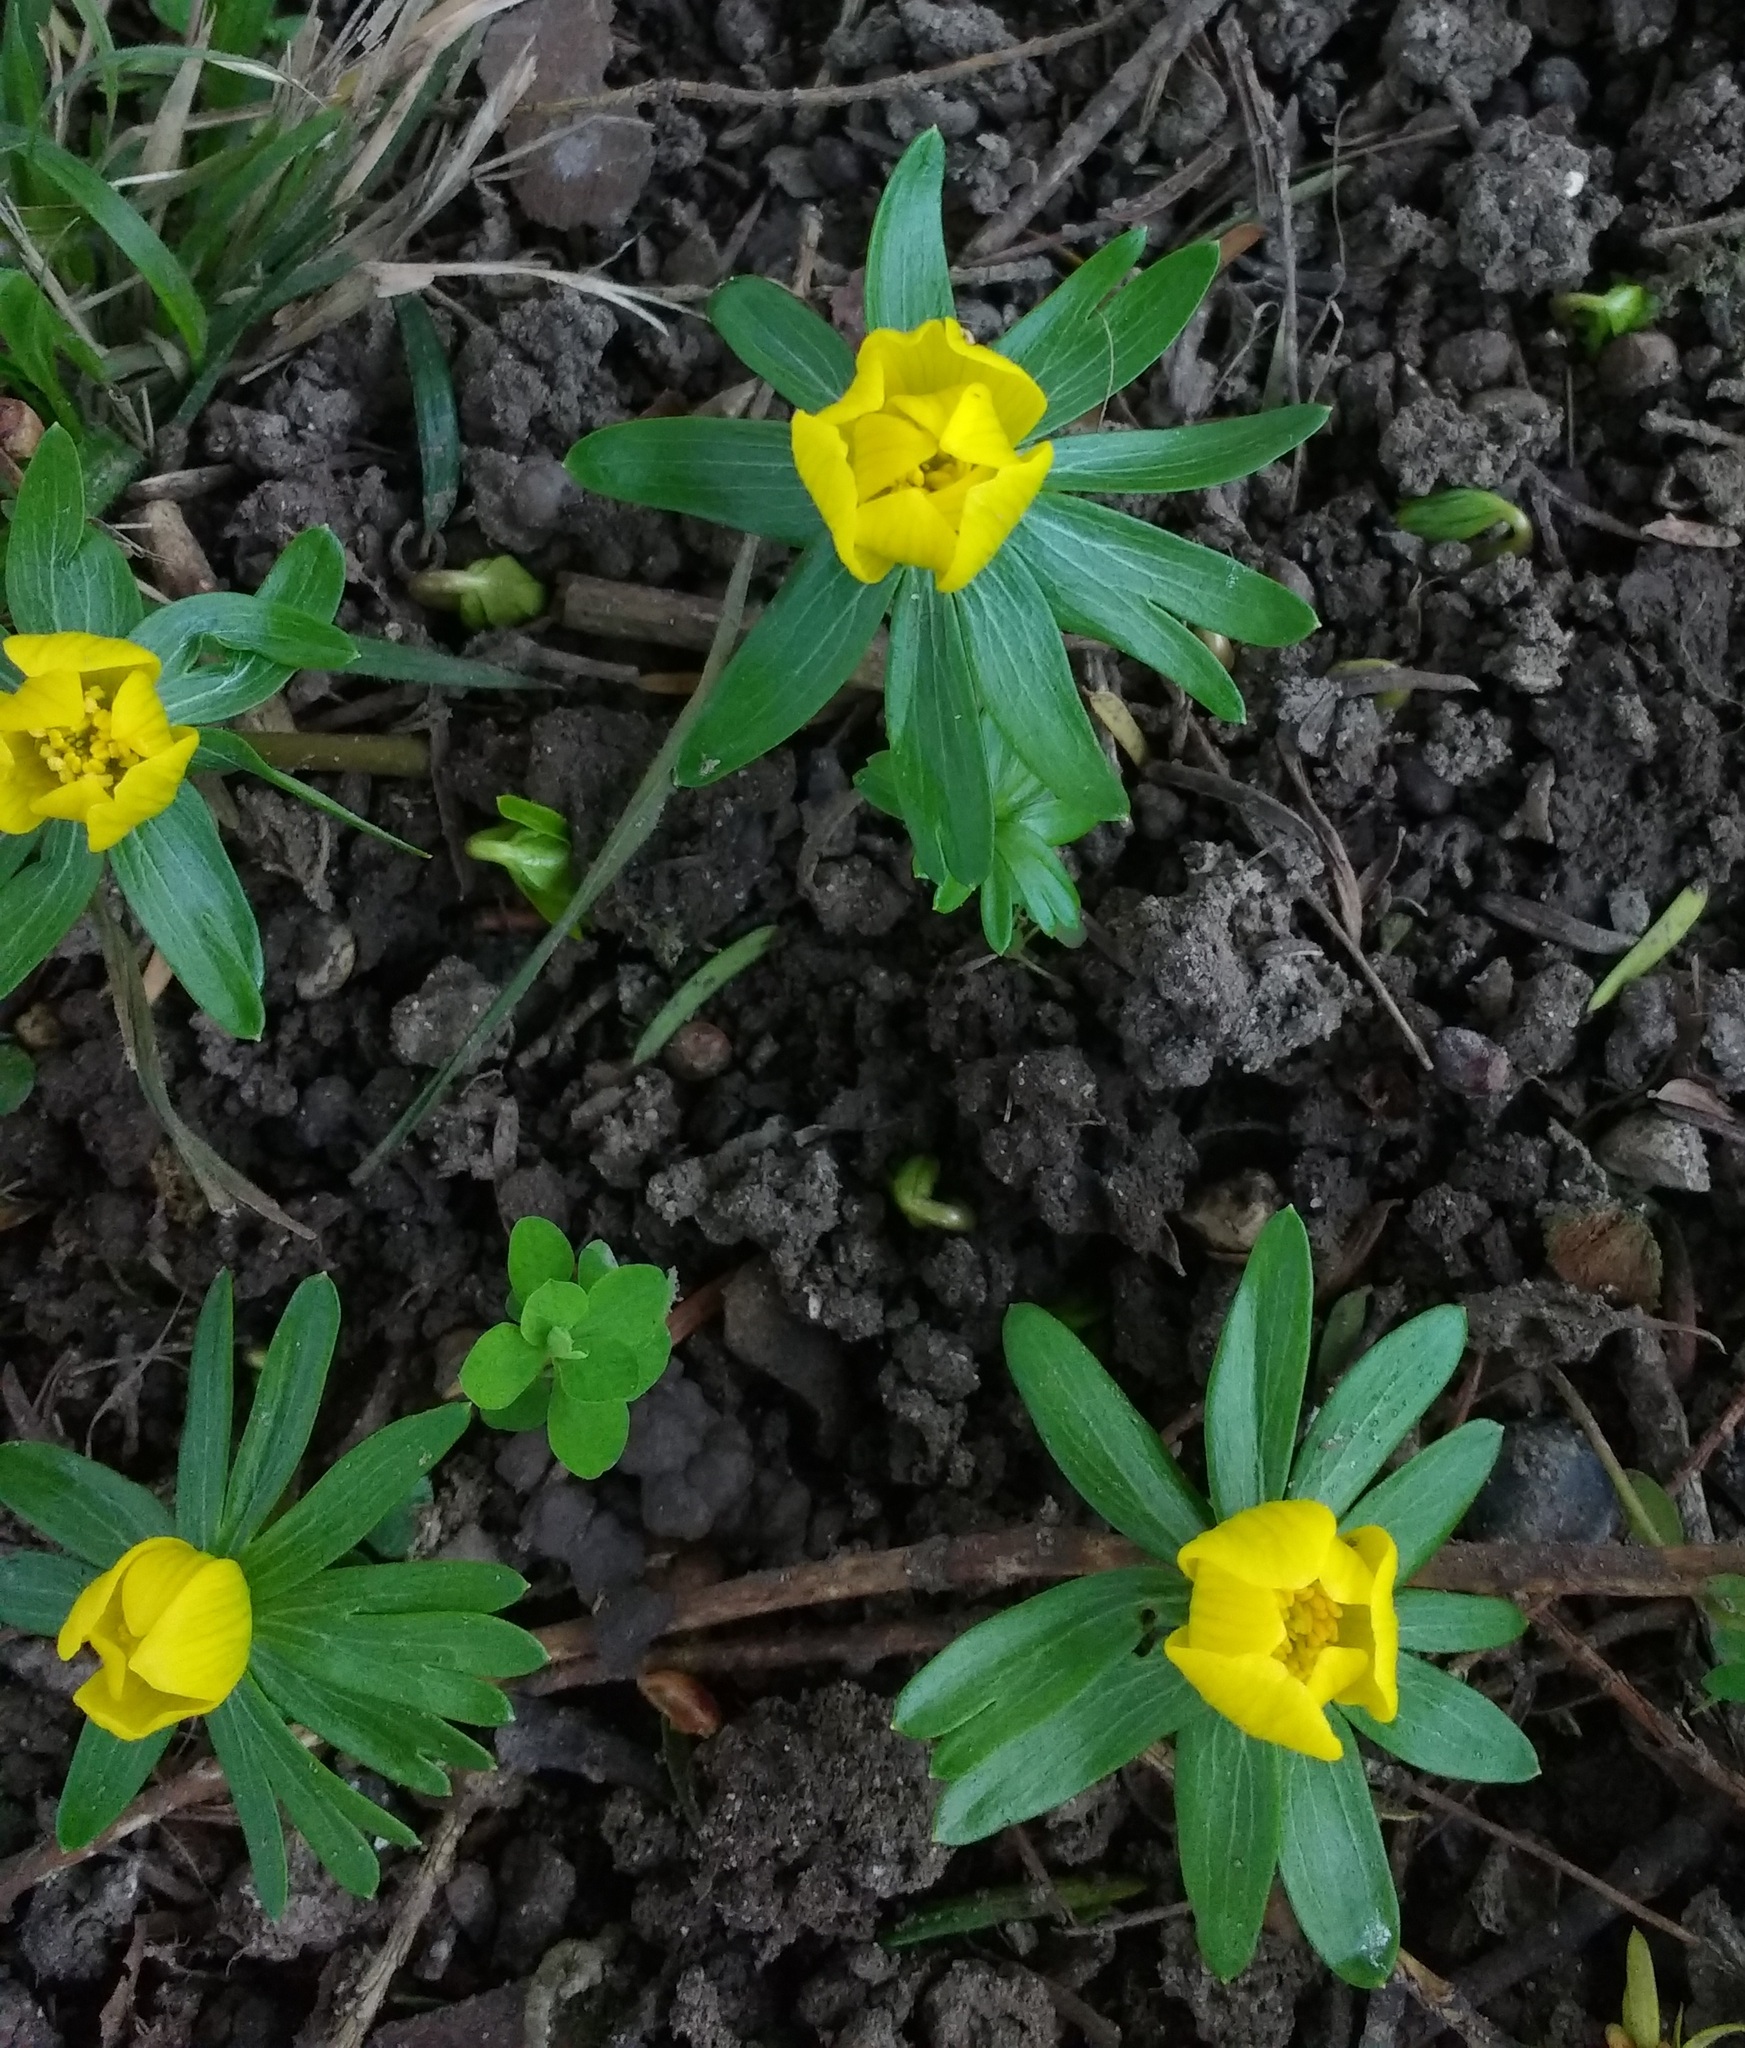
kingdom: Plantae
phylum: Tracheophyta
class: Magnoliopsida
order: Ranunculales
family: Ranunculaceae
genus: Eranthis
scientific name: Eranthis hyemalis
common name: Winter aconite
